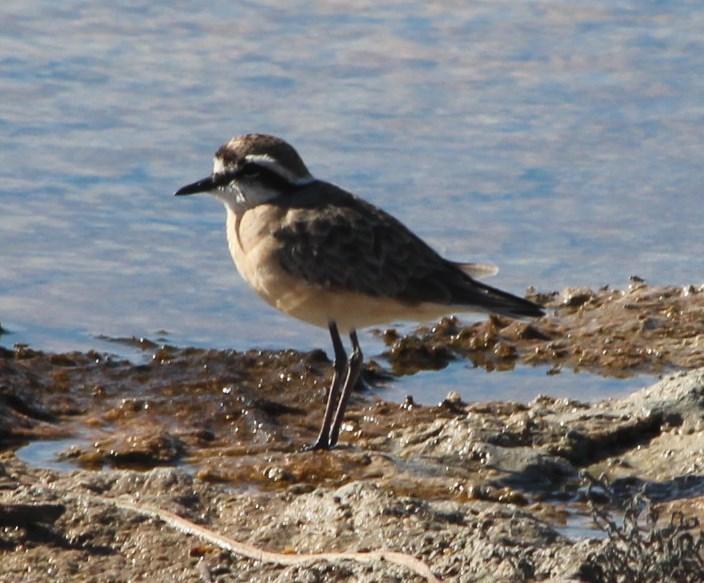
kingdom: Animalia
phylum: Chordata
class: Aves
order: Charadriiformes
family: Charadriidae
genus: Anarhynchus
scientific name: Anarhynchus
